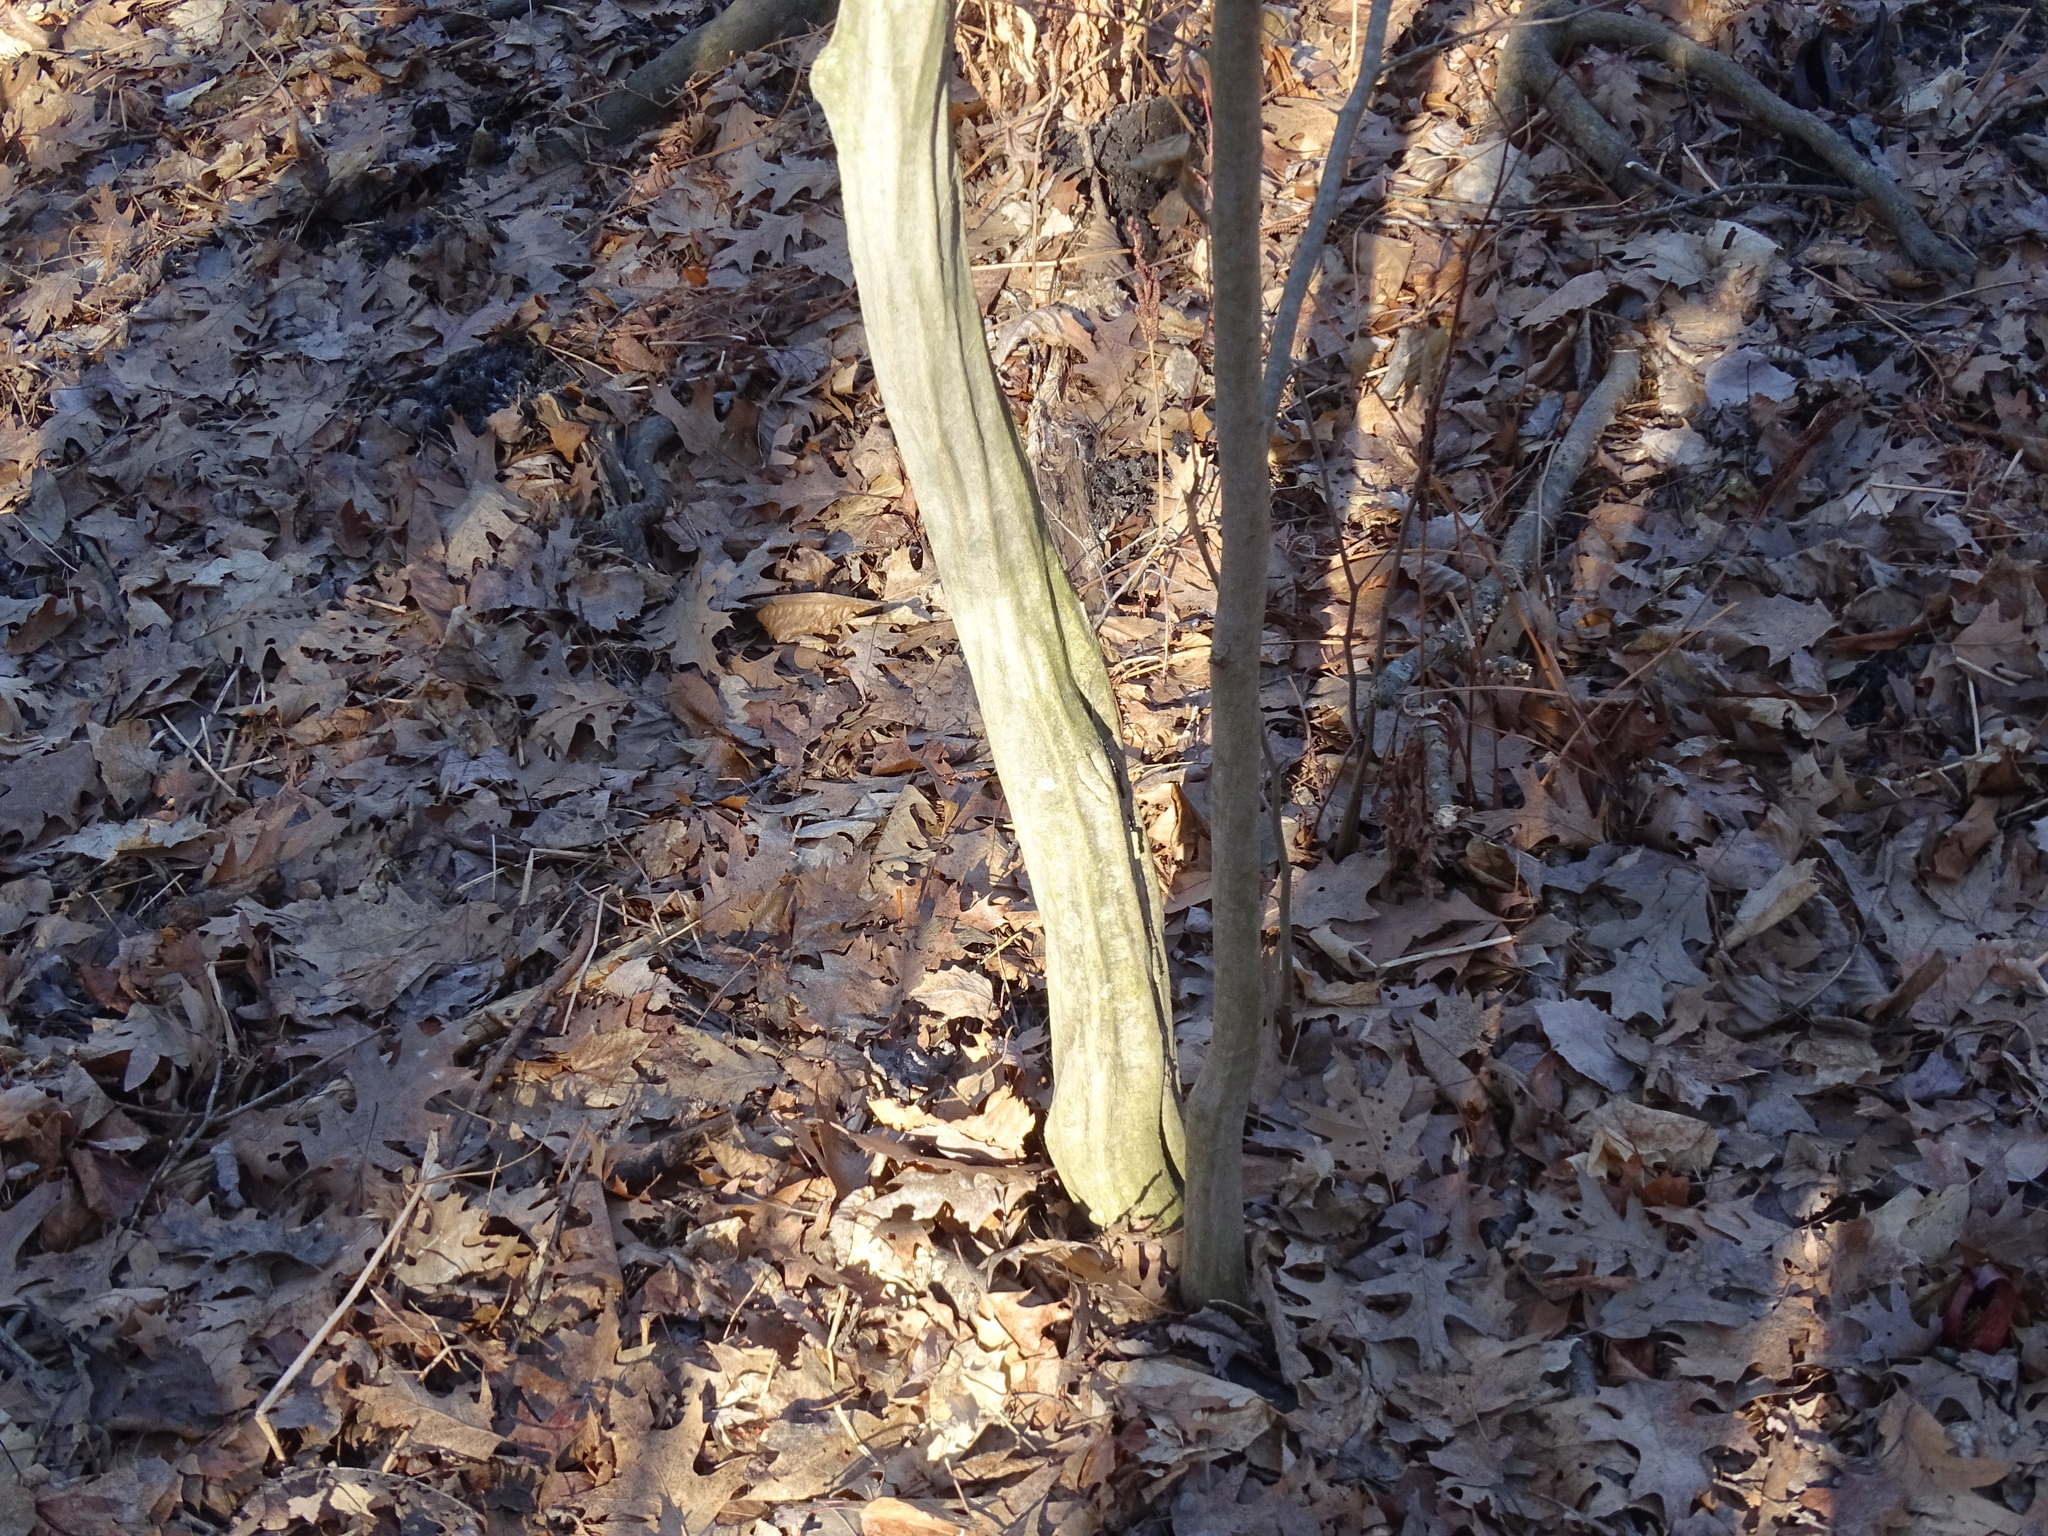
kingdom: Plantae
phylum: Tracheophyta
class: Magnoliopsida
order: Fagales
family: Betulaceae
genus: Carpinus
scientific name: Carpinus caroliniana
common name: American hornbeam
